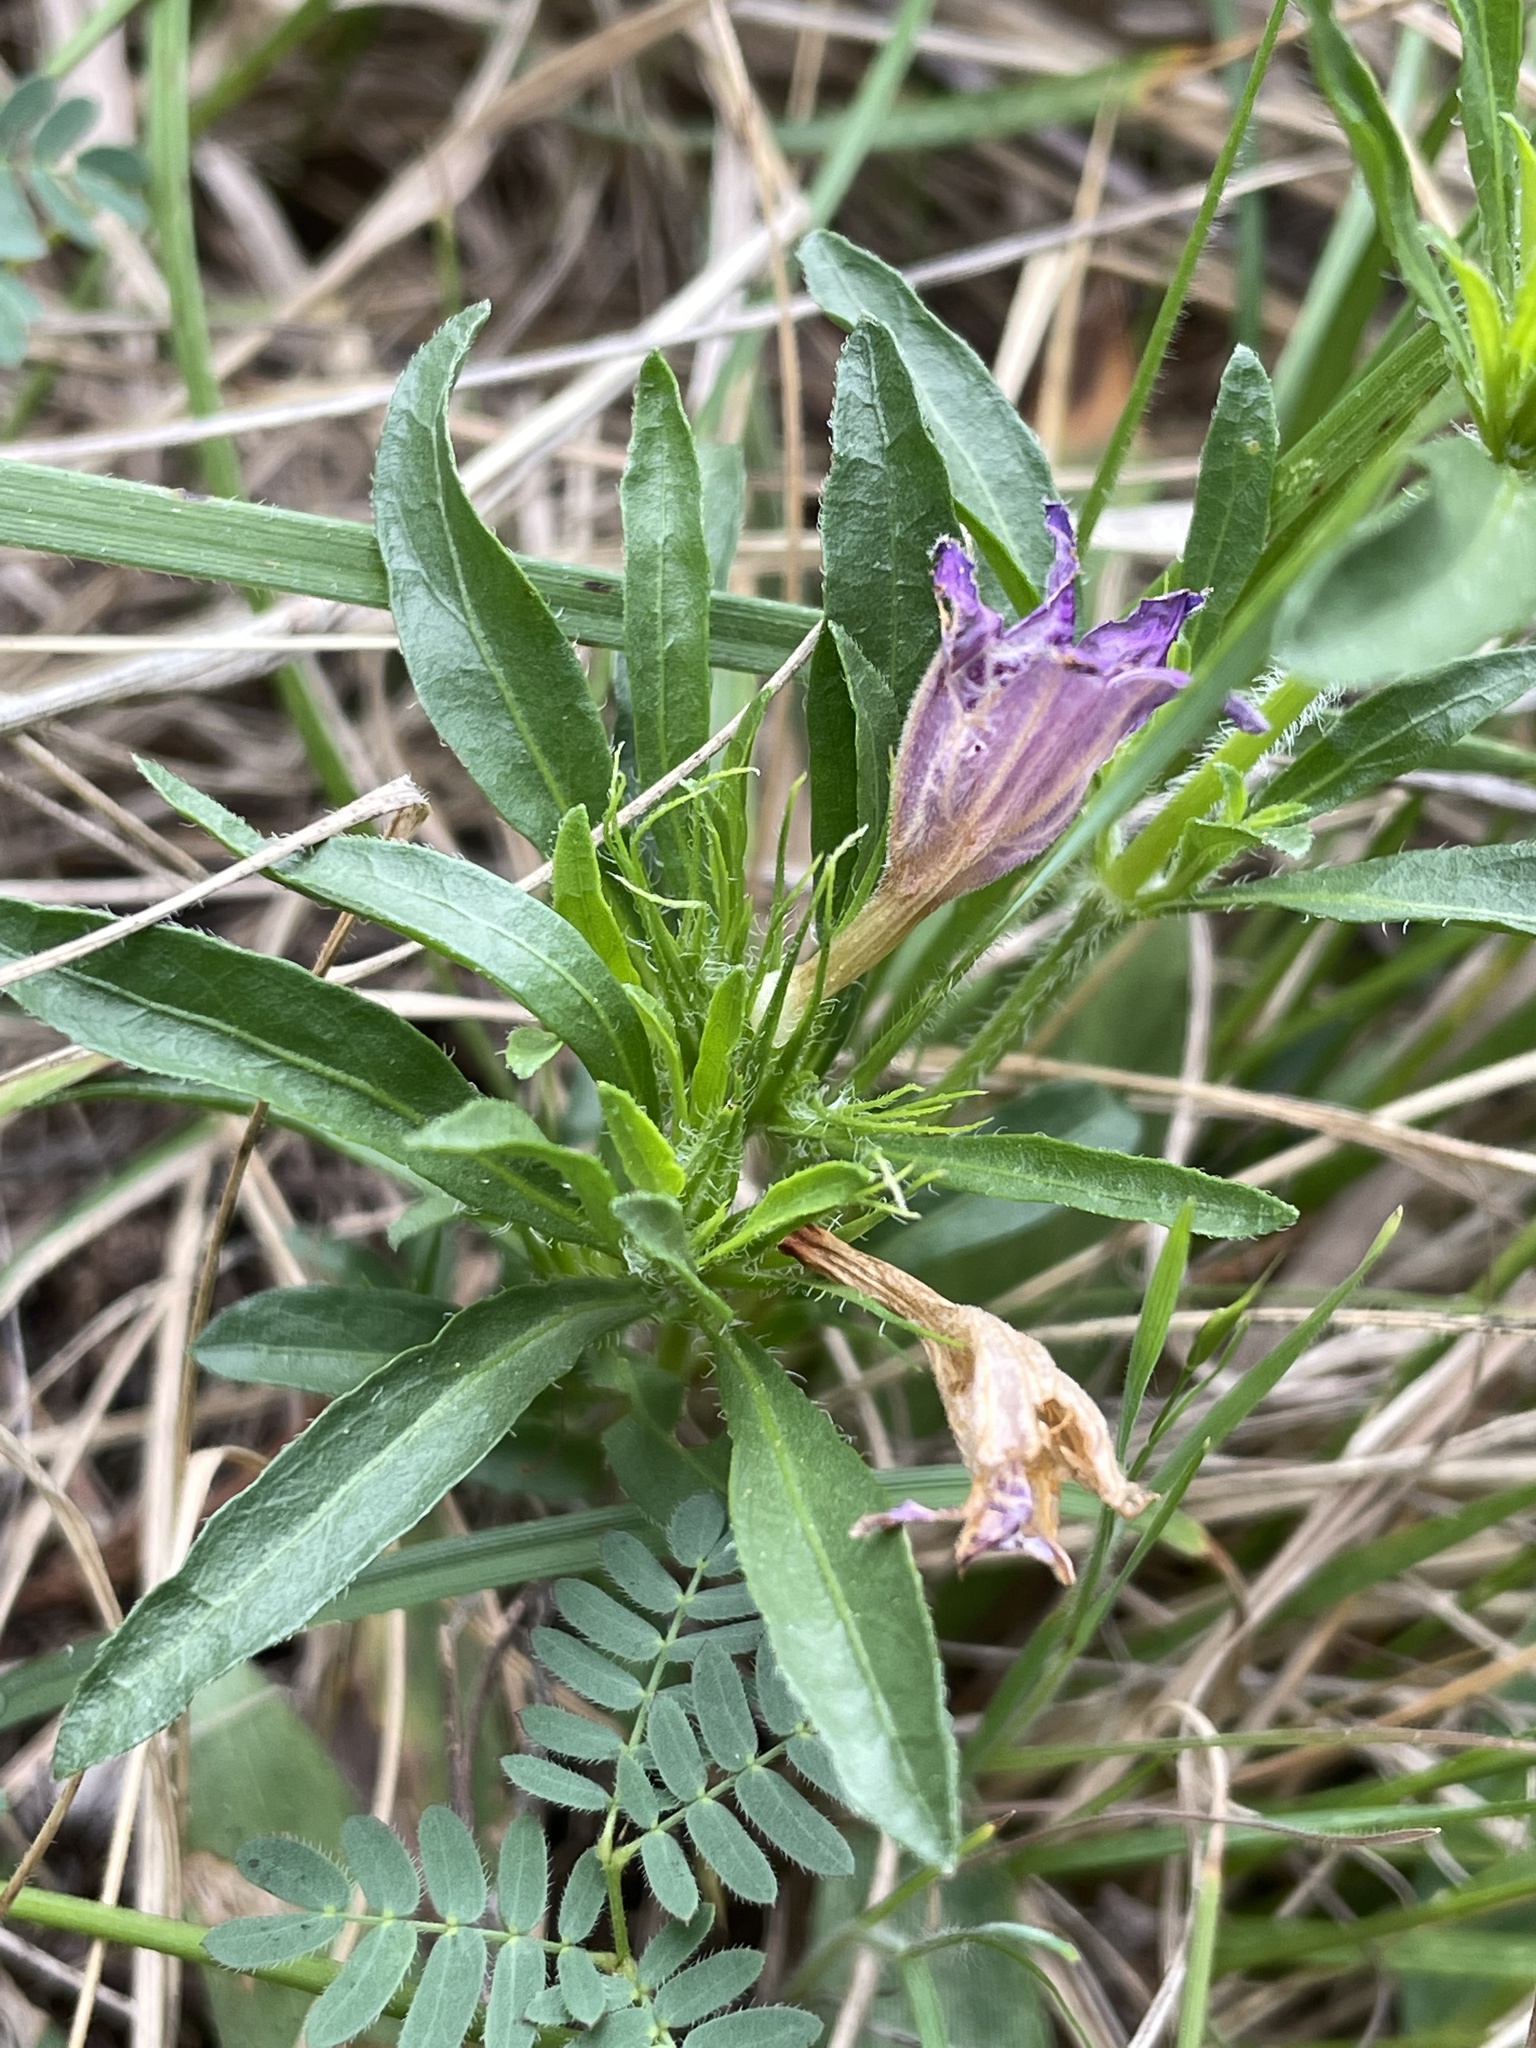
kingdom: Plantae
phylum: Tracheophyta
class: Magnoliopsida
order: Lamiales
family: Acanthaceae
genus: Dyschoriste
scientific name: Dyschoriste linearis
